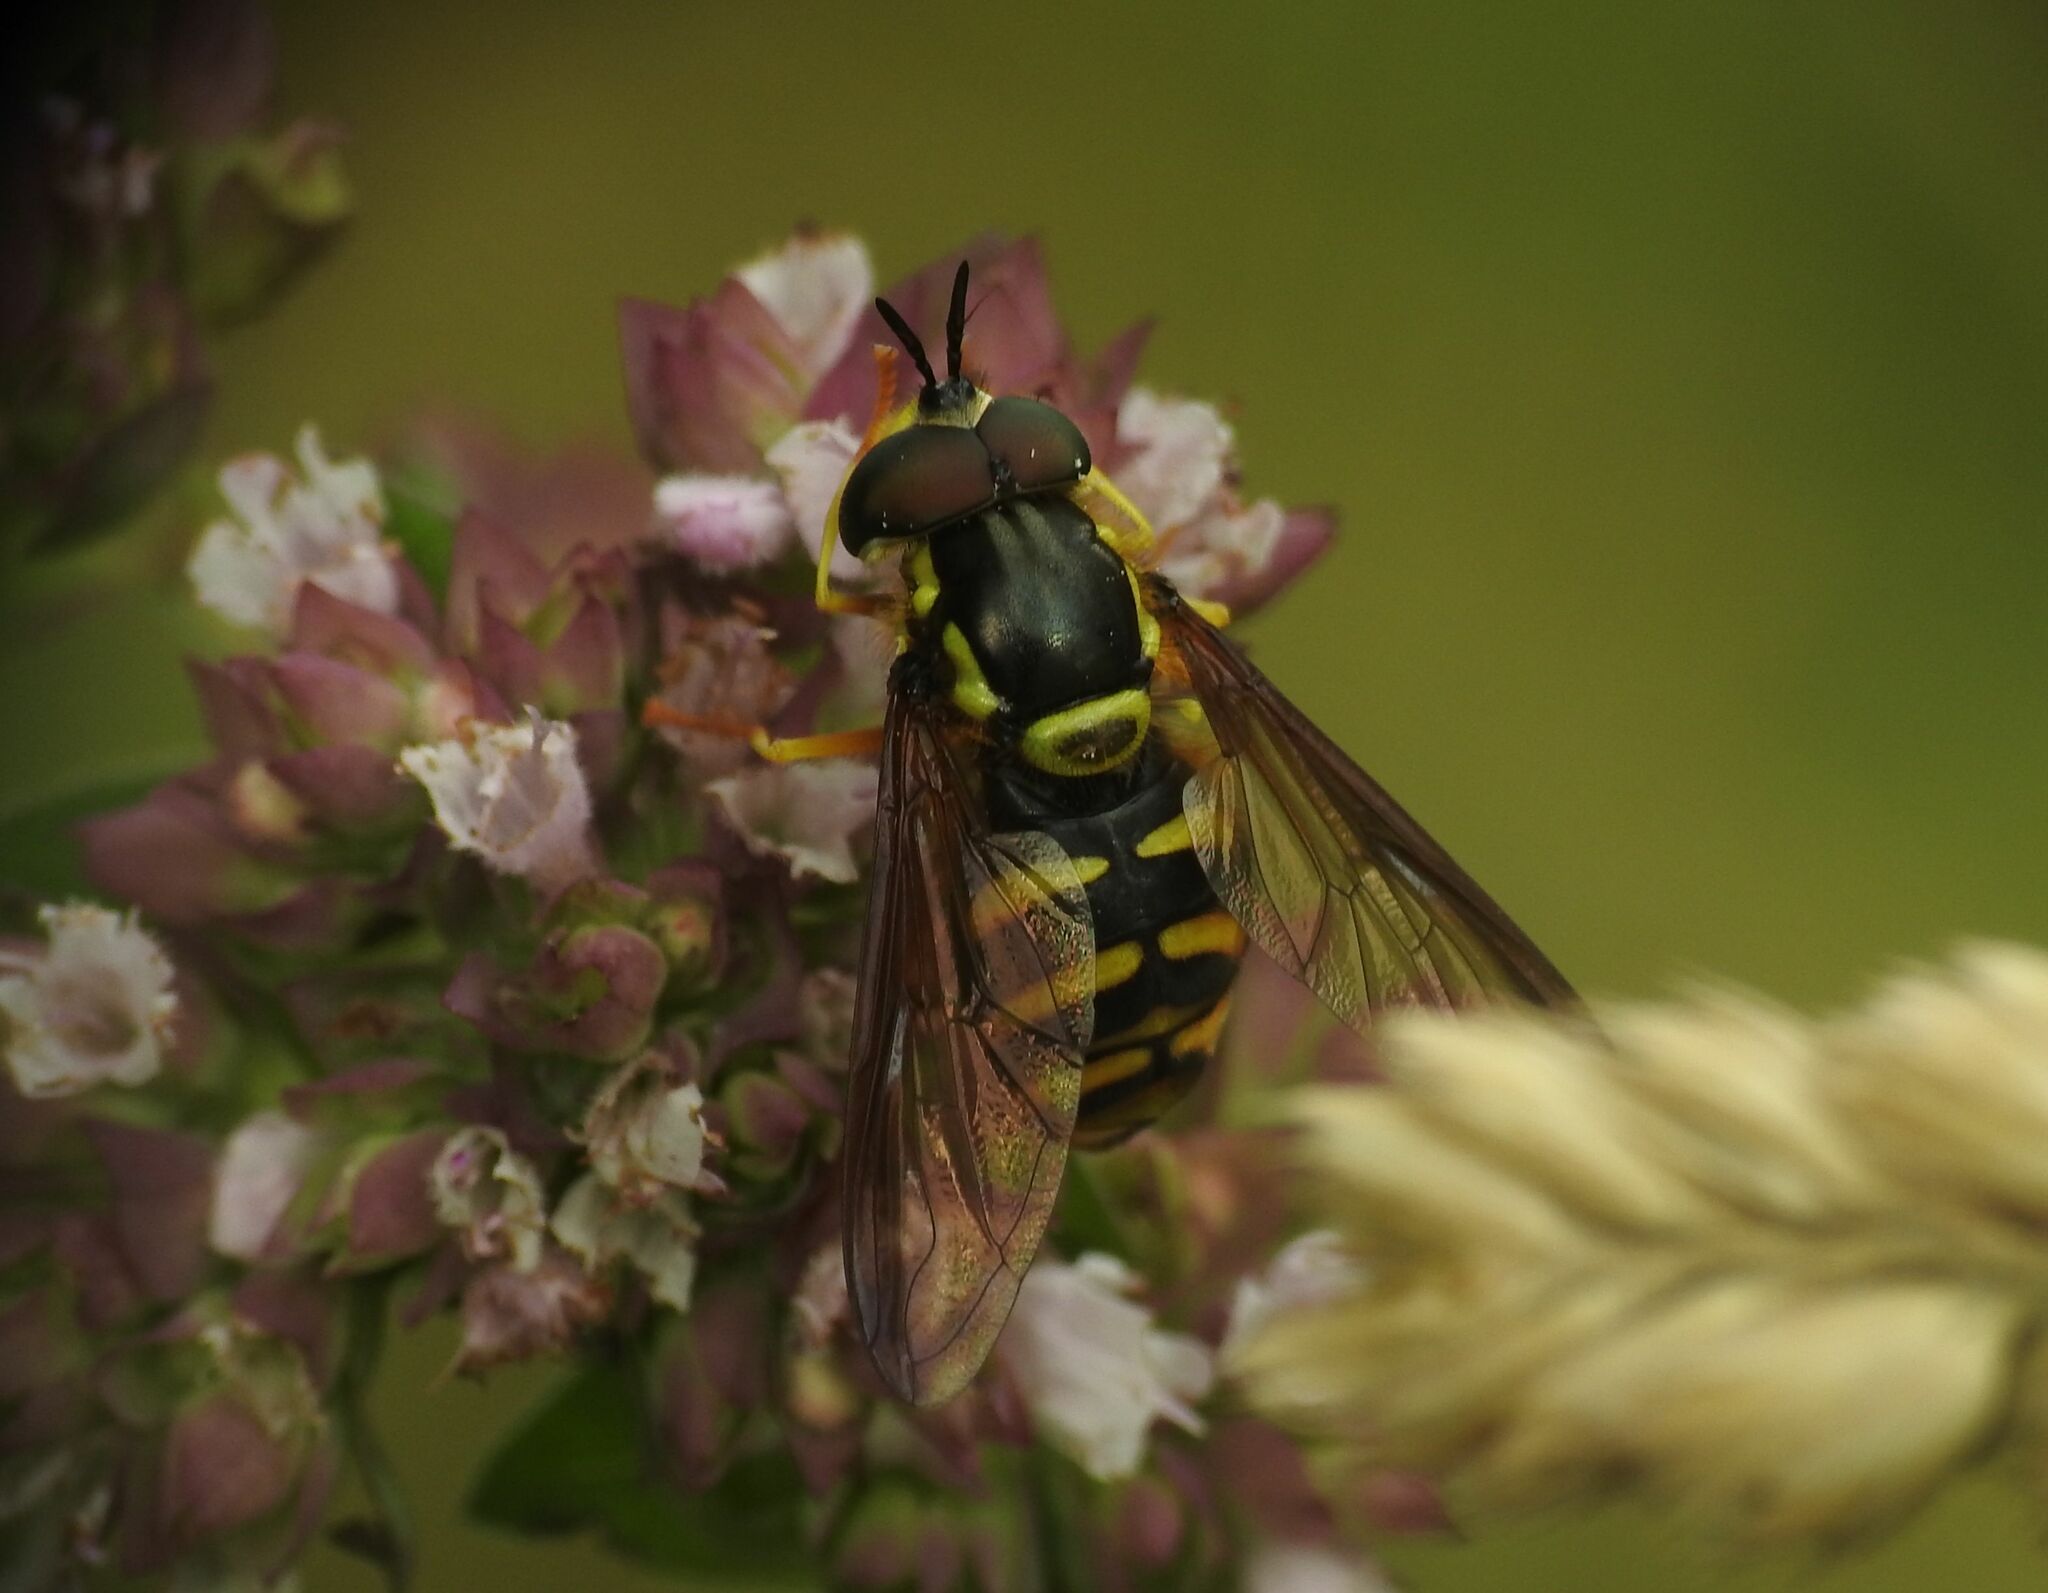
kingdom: Animalia
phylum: Arthropoda
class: Insecta
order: Diptera
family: Syrphidae
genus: Chrysotoxum
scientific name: Chrysotoxum intermedium
